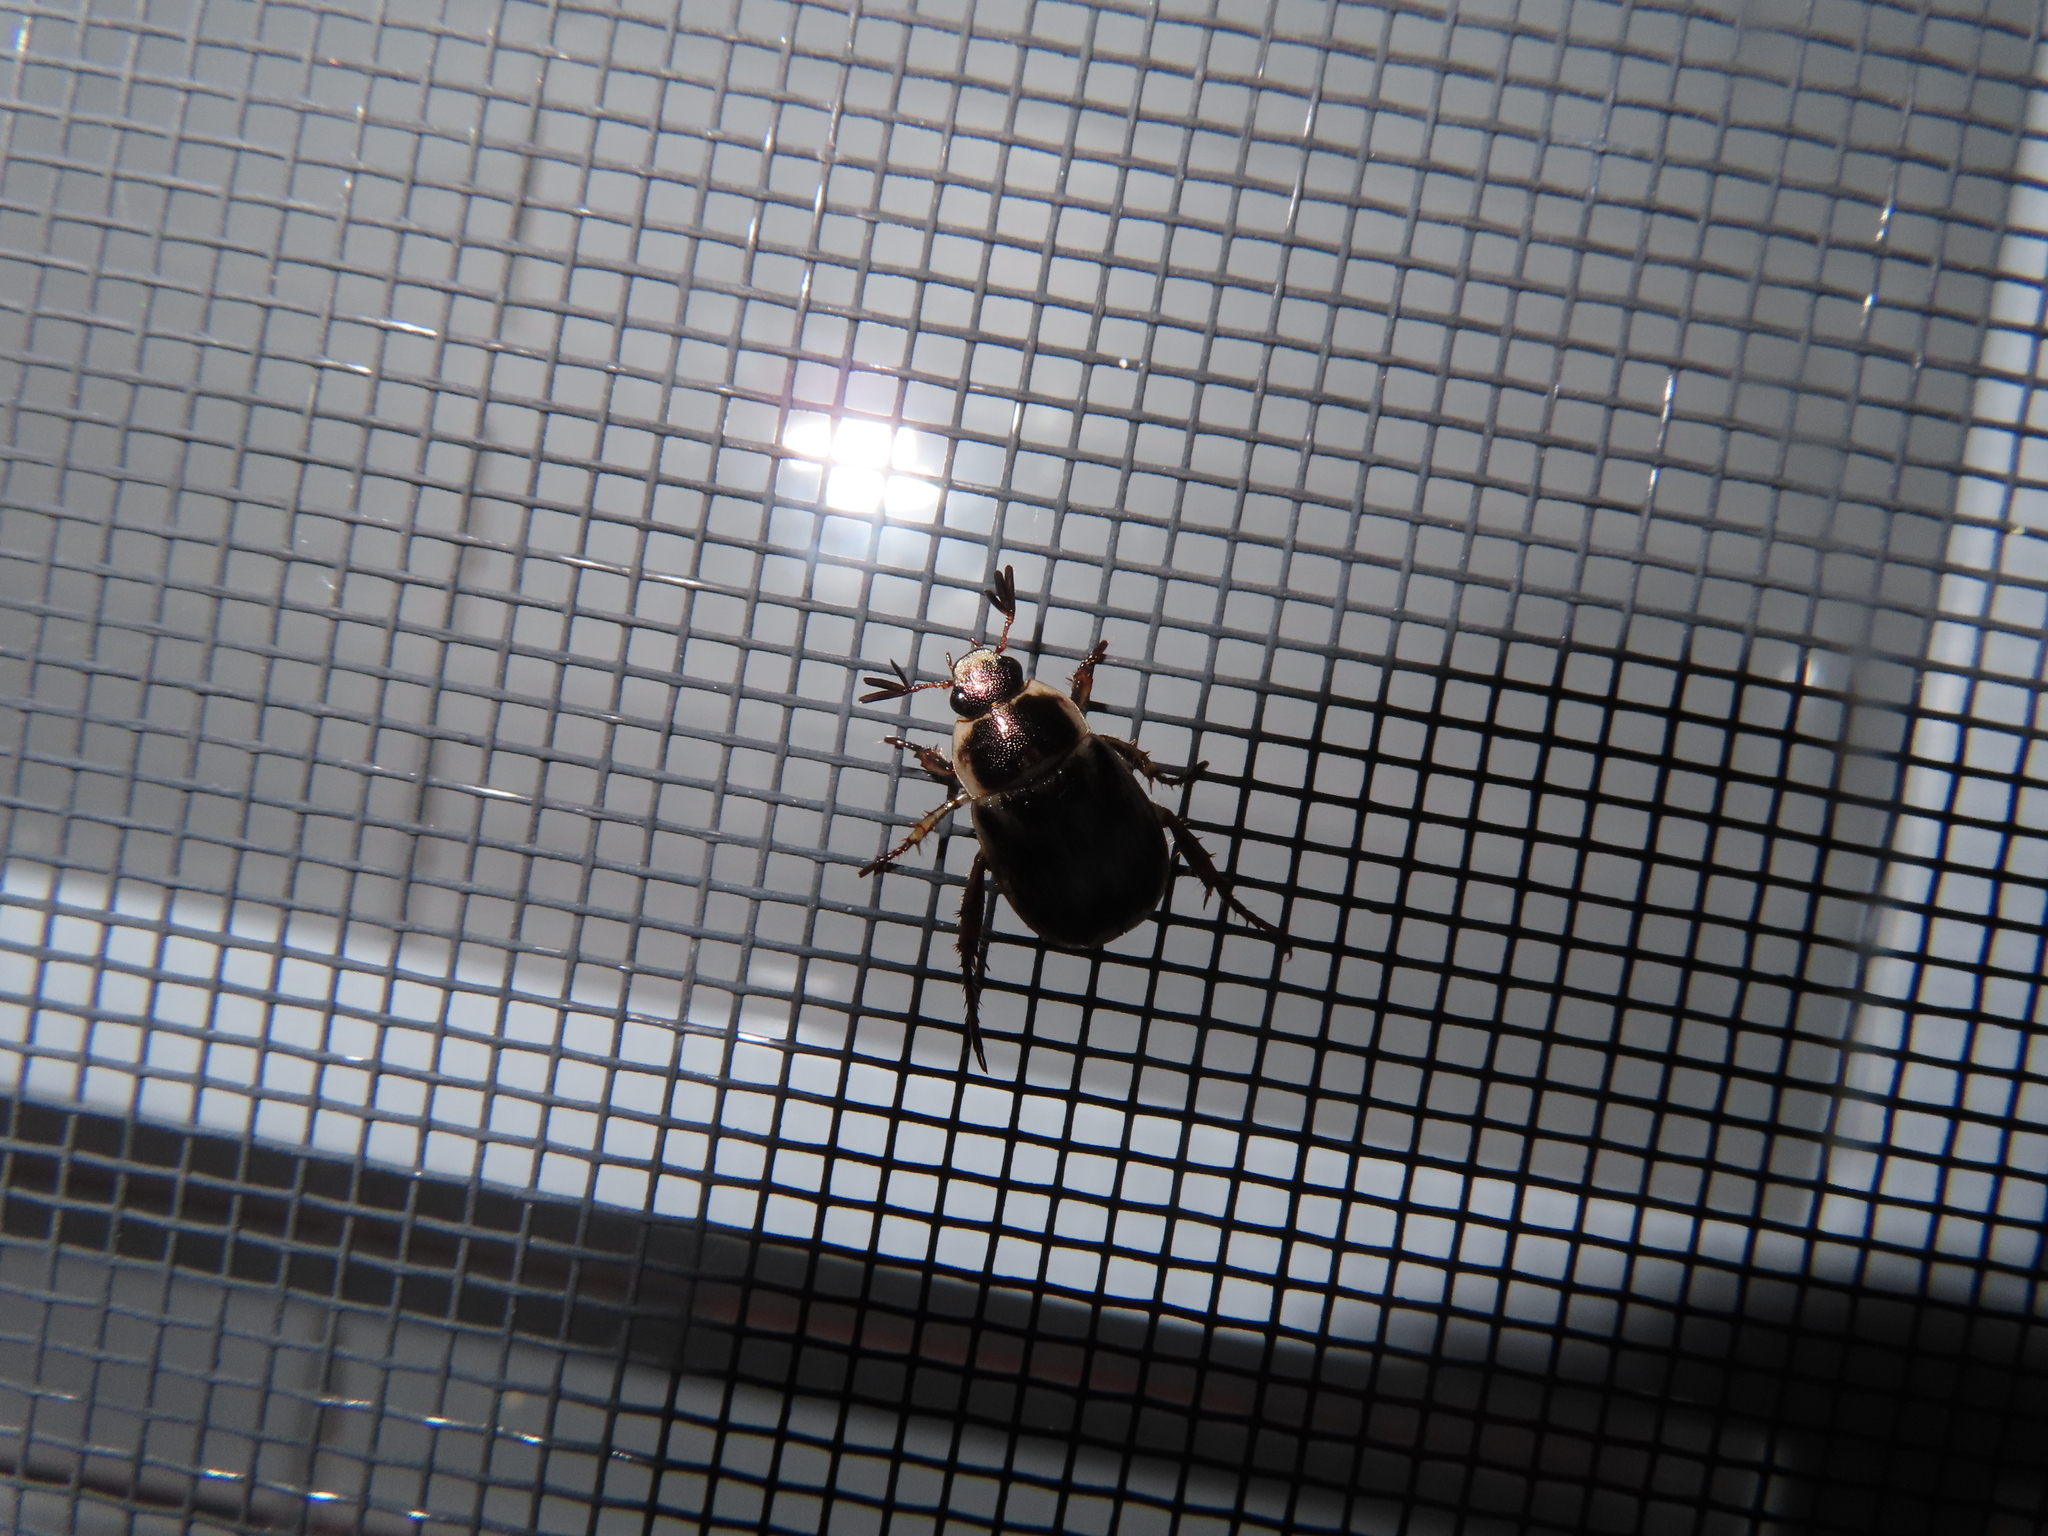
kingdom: Animalia
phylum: Arthropoda
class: Insecta
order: Coleoptera
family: Scarabaeidae
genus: Exomala
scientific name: Exomala orientalis
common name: Oriental beetle
